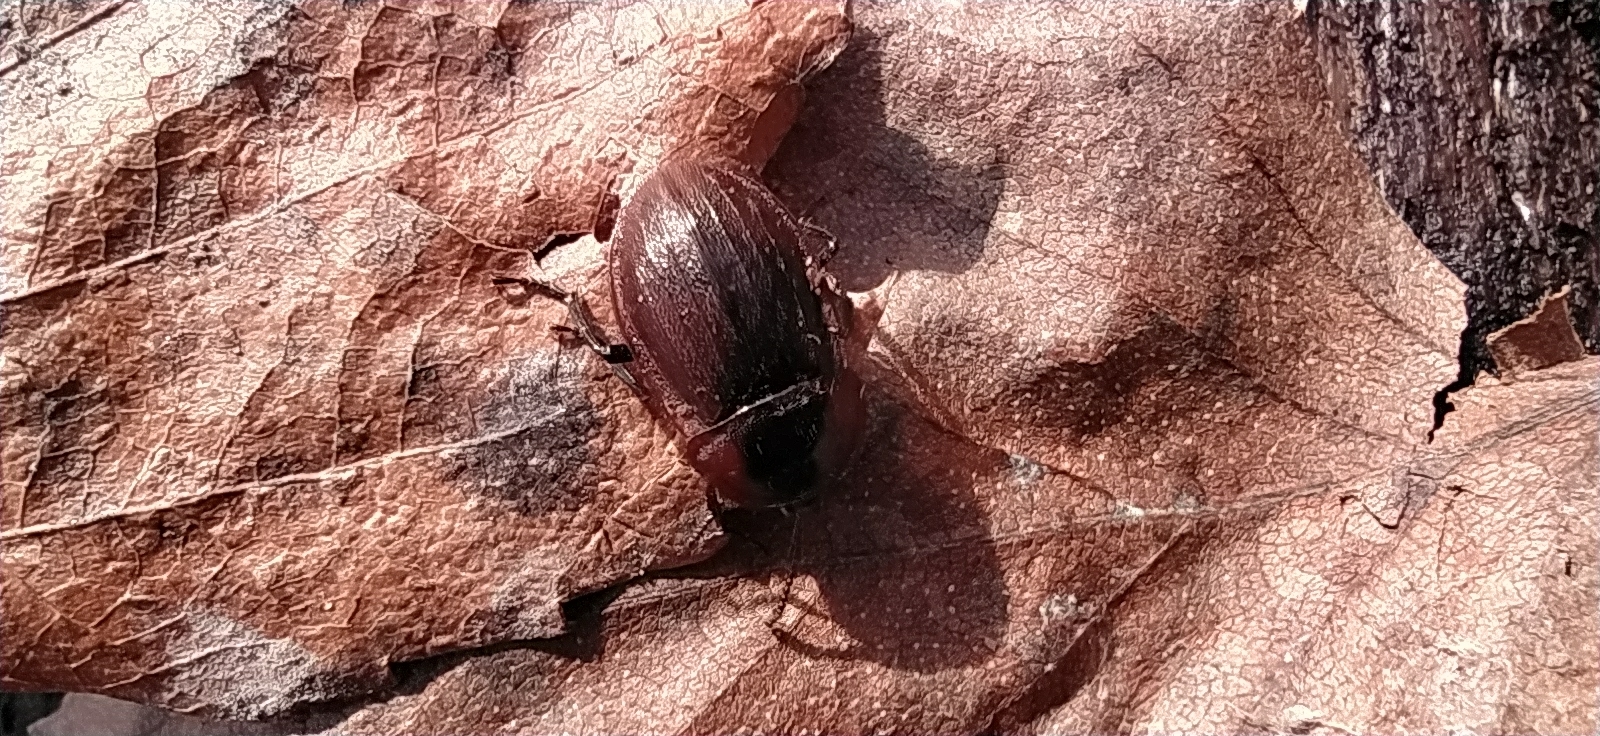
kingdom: Animalia
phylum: Arthropoda
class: Insecta
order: Coleoptera
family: Staphylinidae
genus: Silpha
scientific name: Silpha atrata
